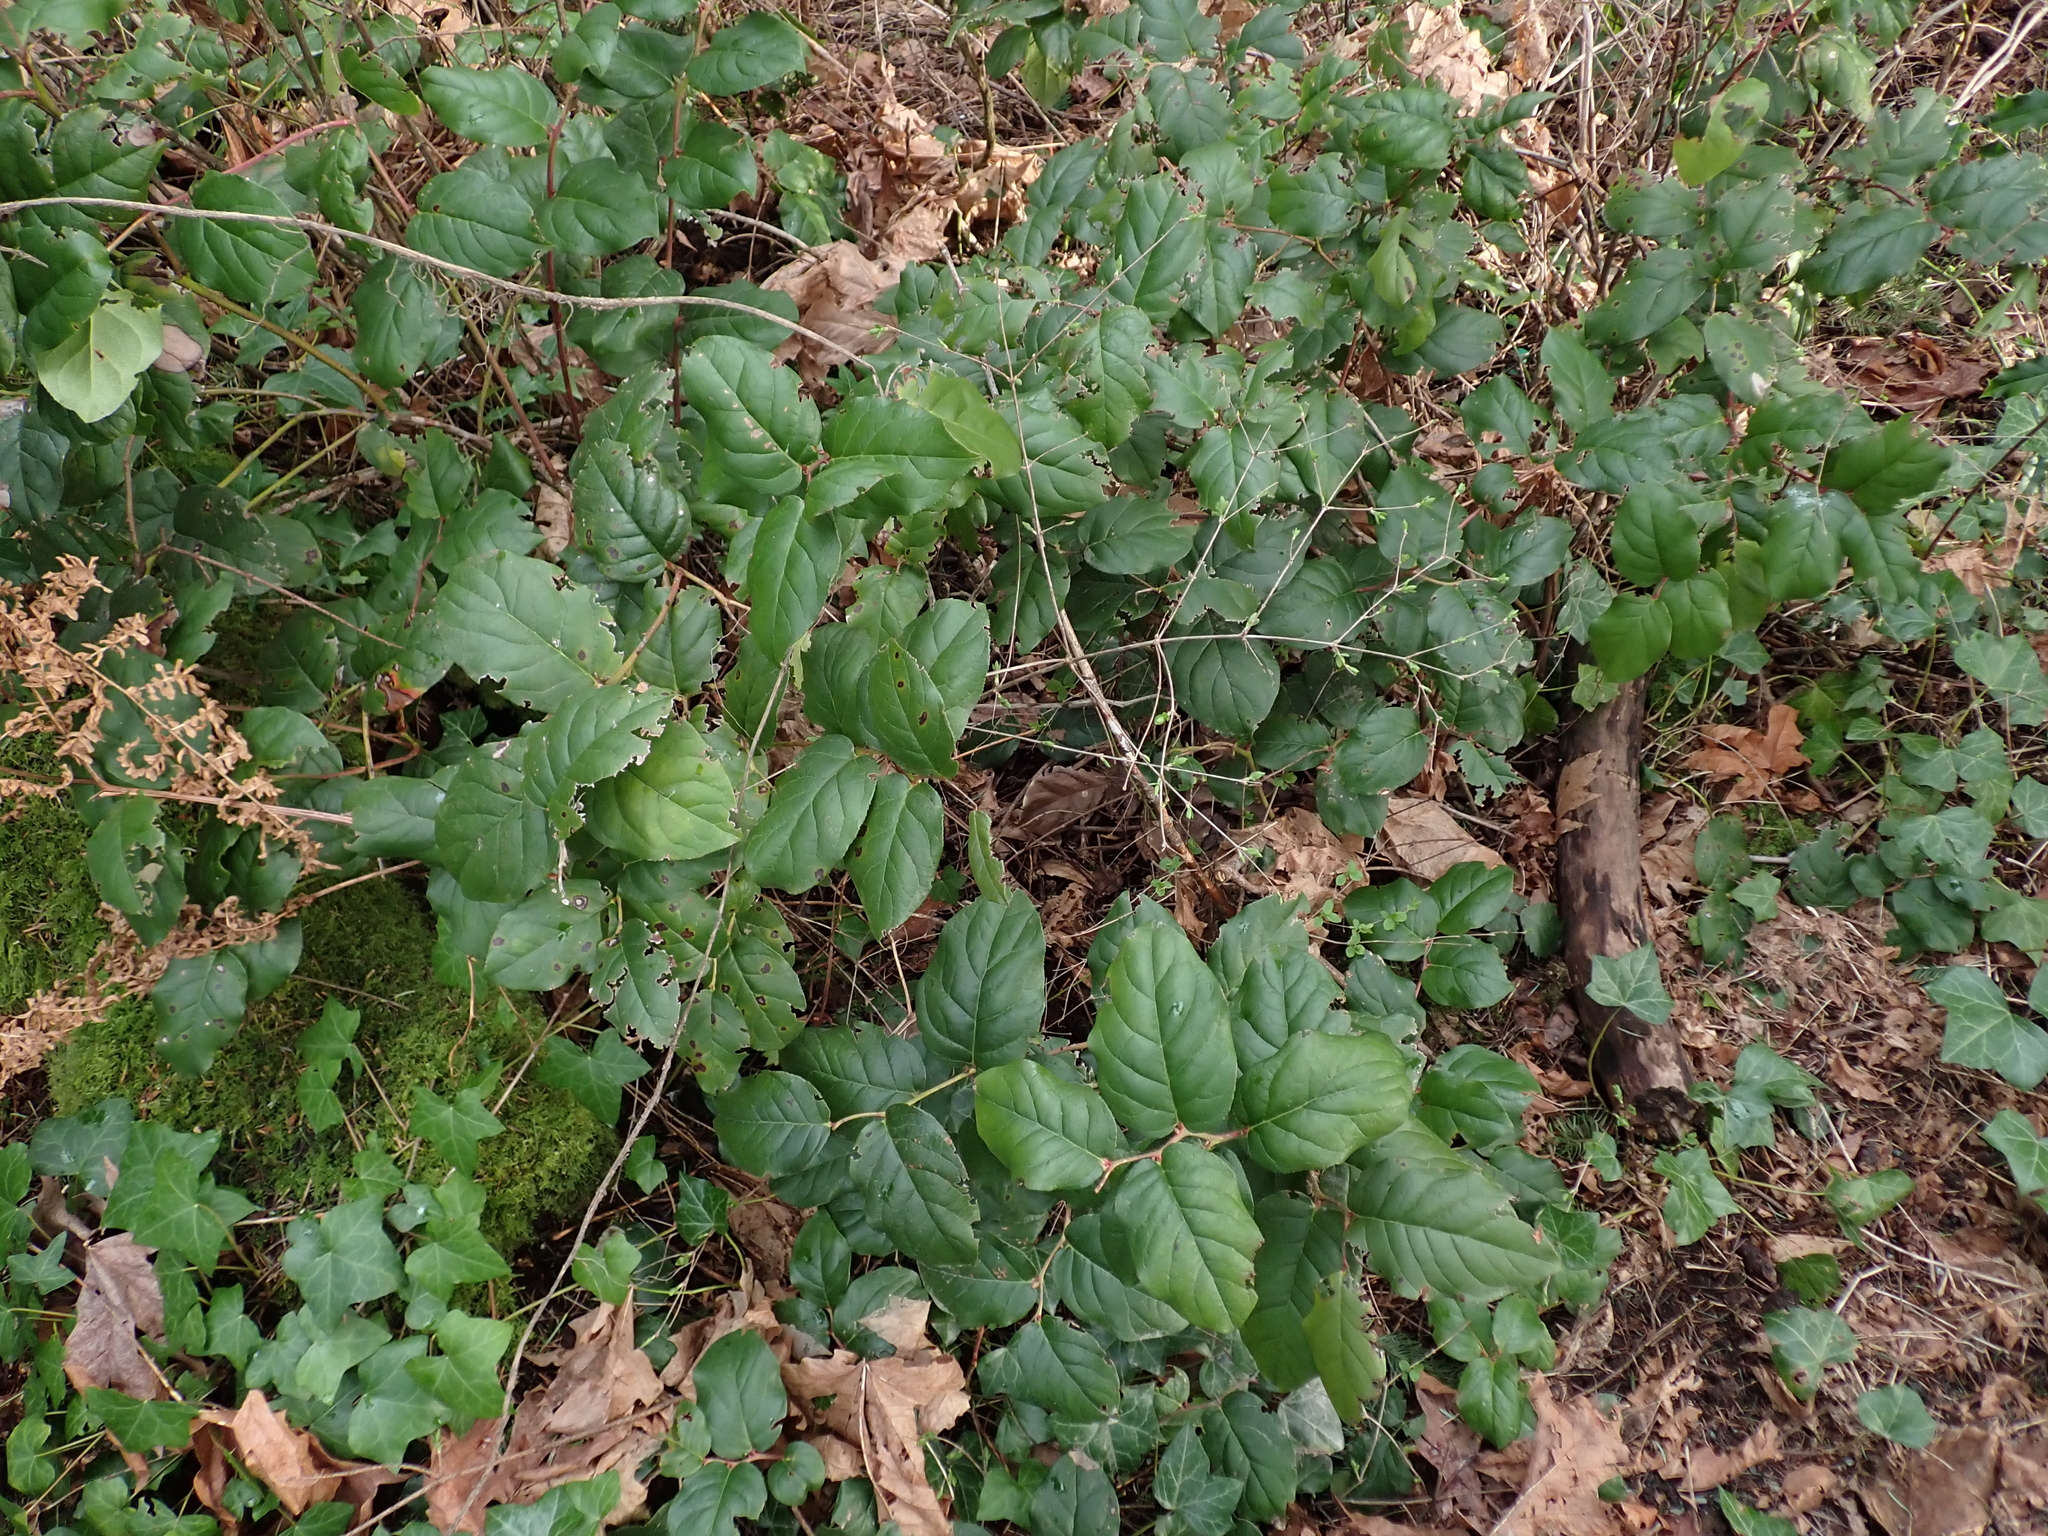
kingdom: Plantae
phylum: Tracheophyta
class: Magnoliopsida
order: Ericales
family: Ericaceae
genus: Gaultheria
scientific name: Gaultheria shallon
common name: Shallon
